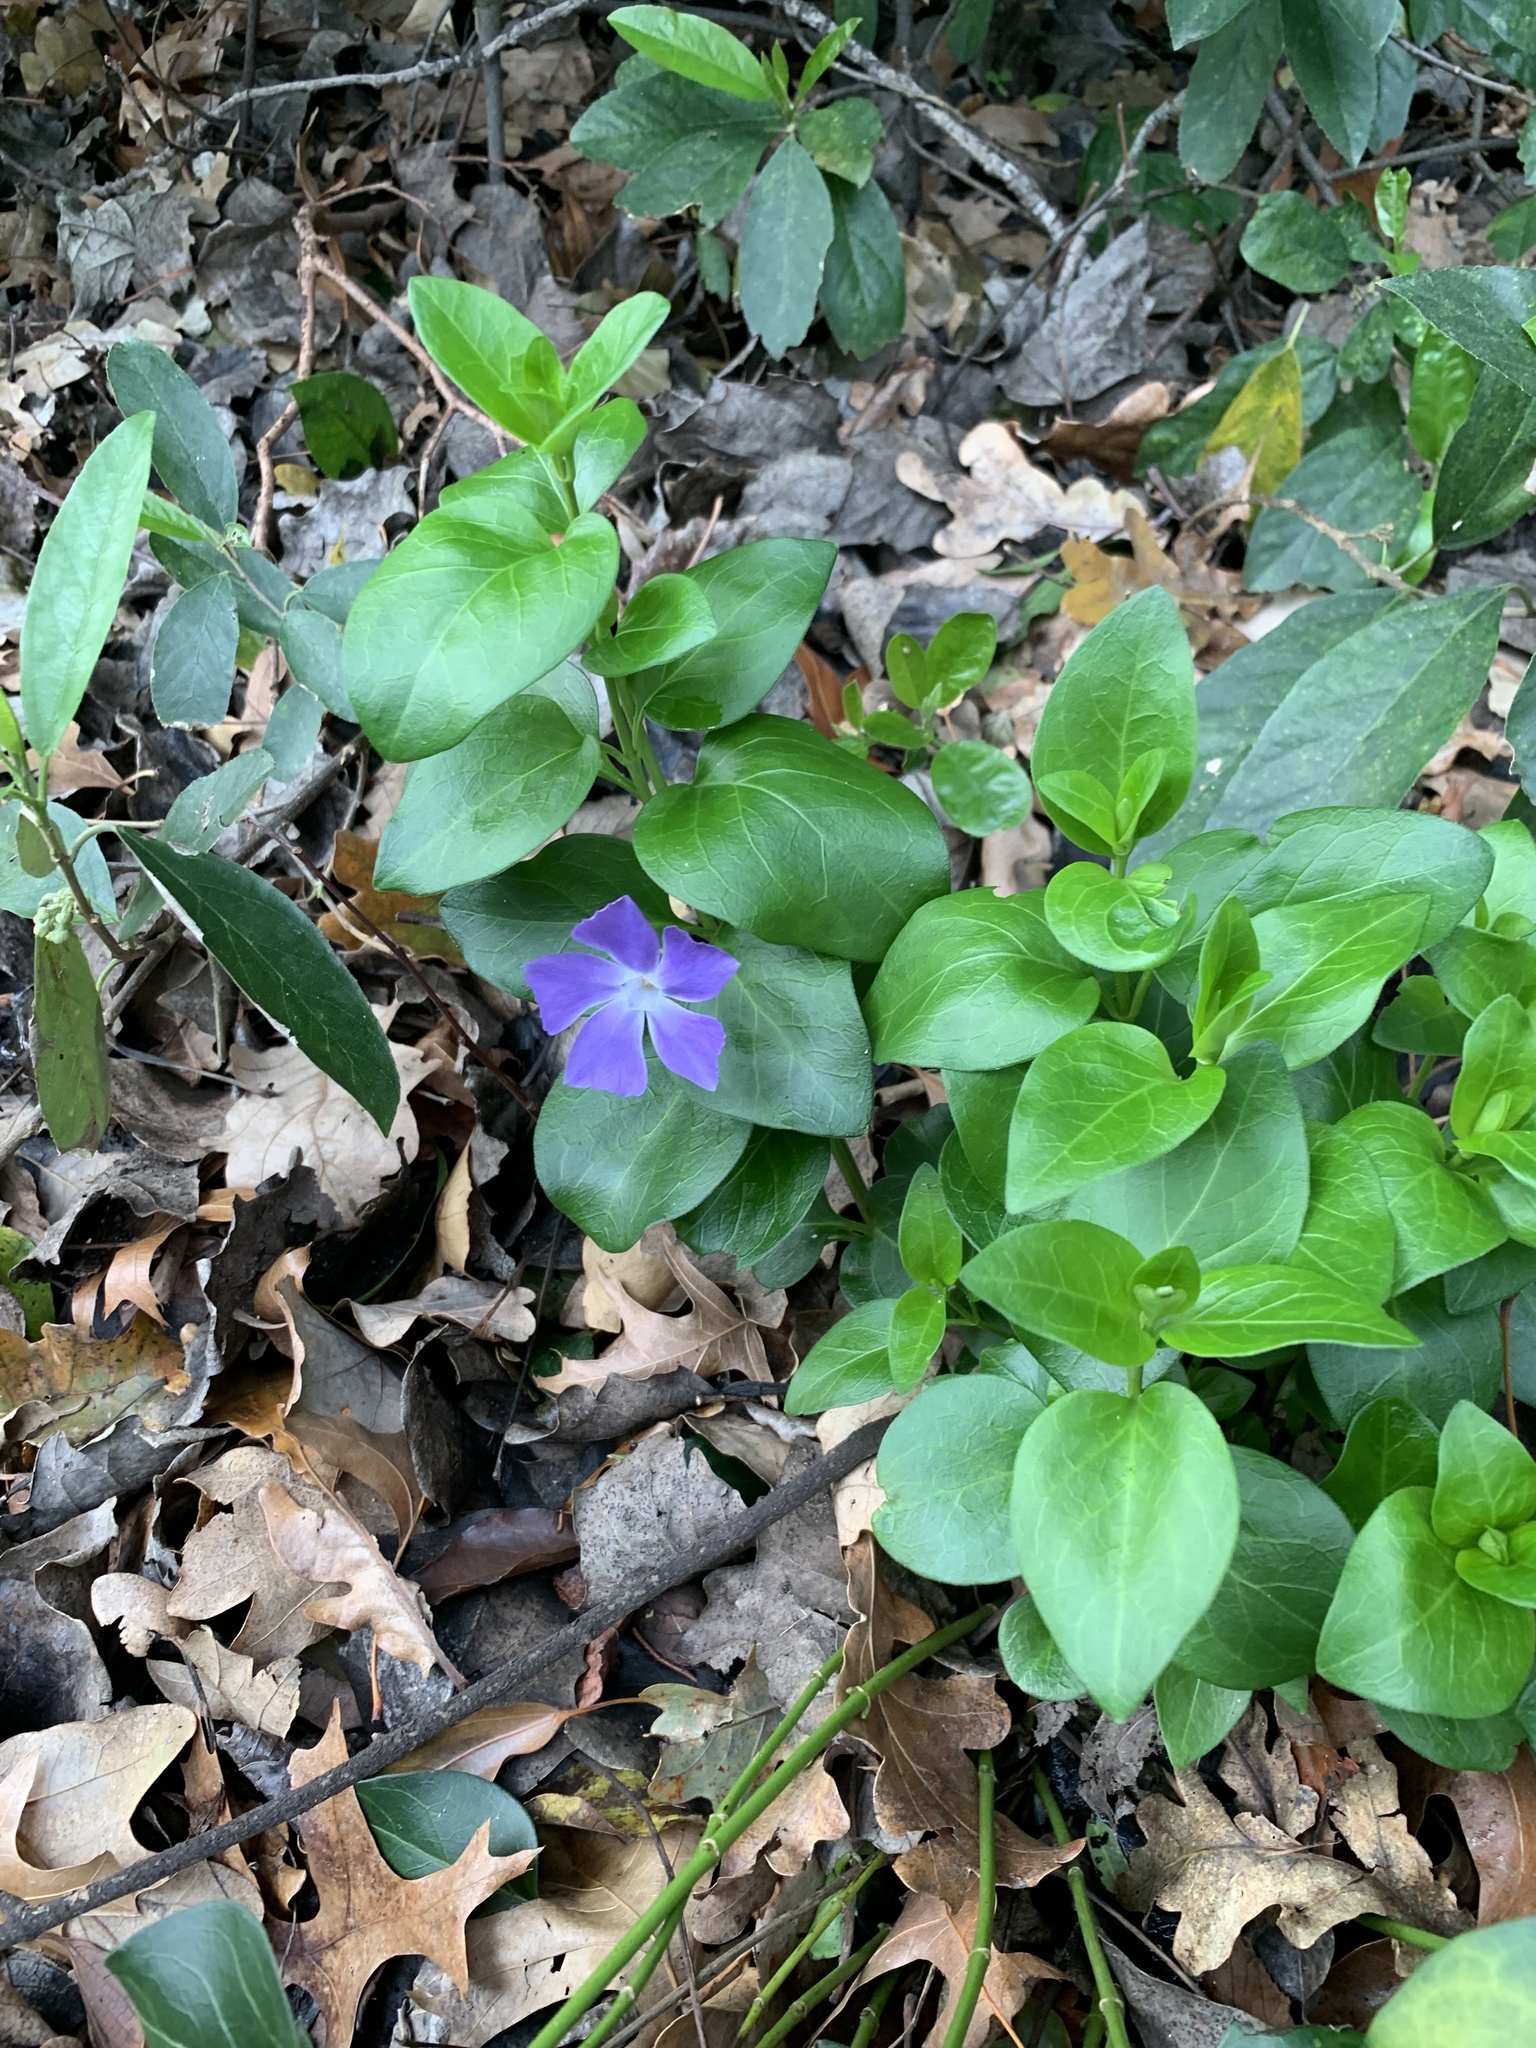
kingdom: Plantae
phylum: Tracheophyta
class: Magnoliopsida
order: Gentianales
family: Apocynaceae
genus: Vinca
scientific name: Vinca major
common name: Greater periwinkle
